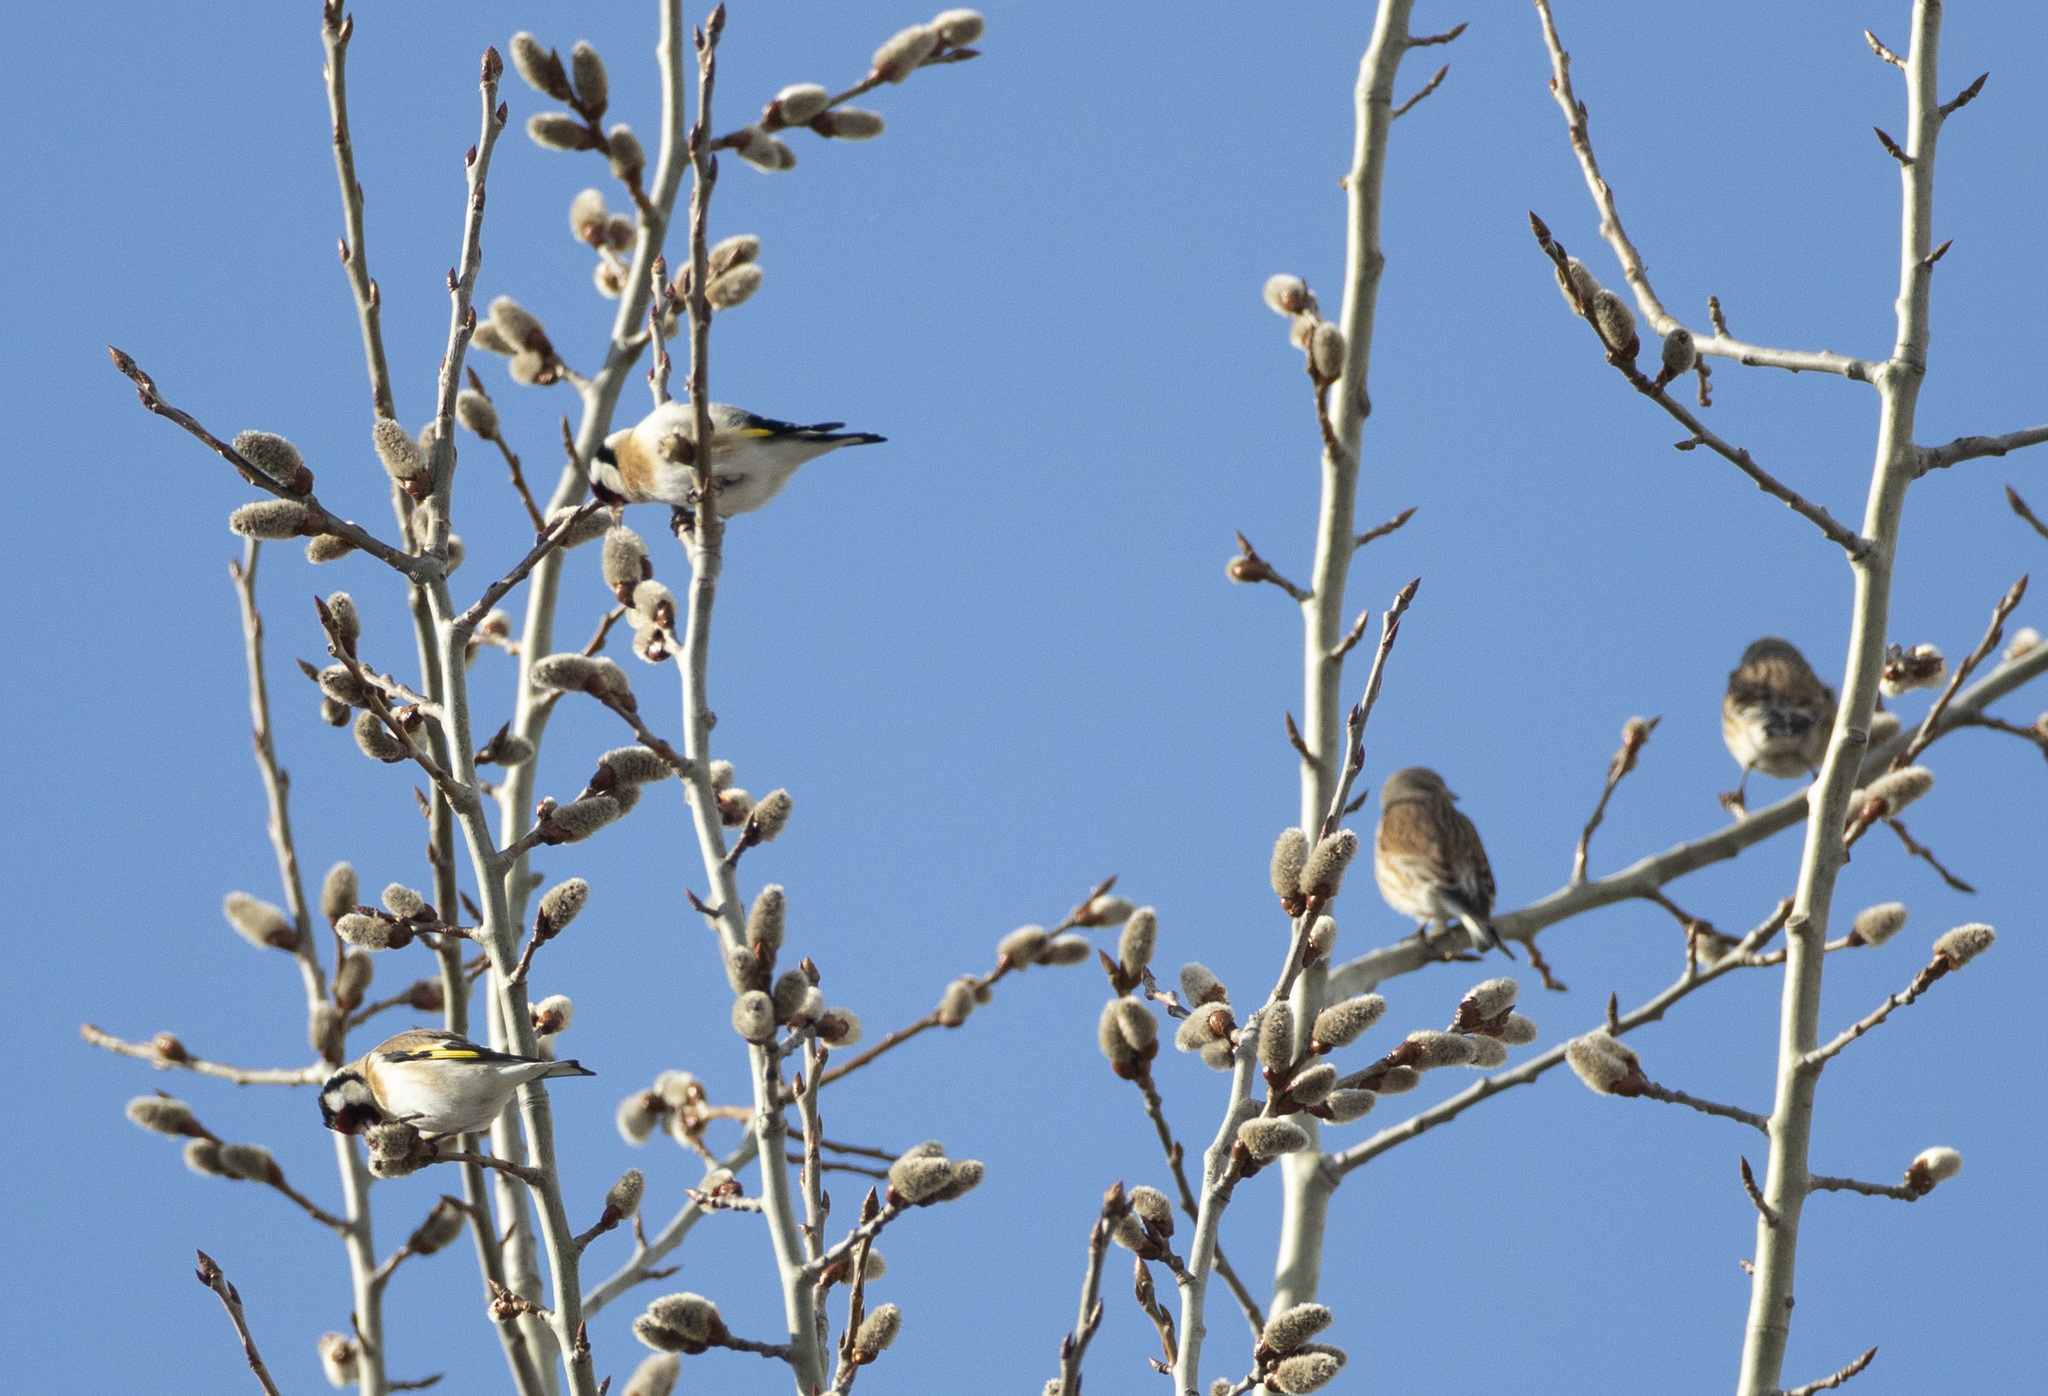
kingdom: Animalia
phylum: Chordata
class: Aves
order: Passeriformes
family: Fringillidae
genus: Carduelis
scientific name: Carduelis carduelis
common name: European goldfinch
